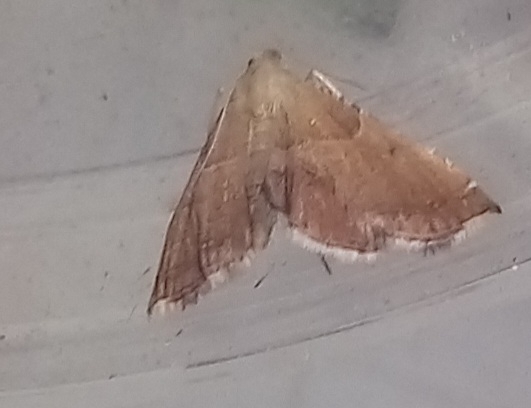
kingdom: Animalia
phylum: Arthropoda
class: Insecta
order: Lepidoptera
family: Pyralidae
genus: Endotricha
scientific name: Endotricha flammealis
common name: Rosy tabby
